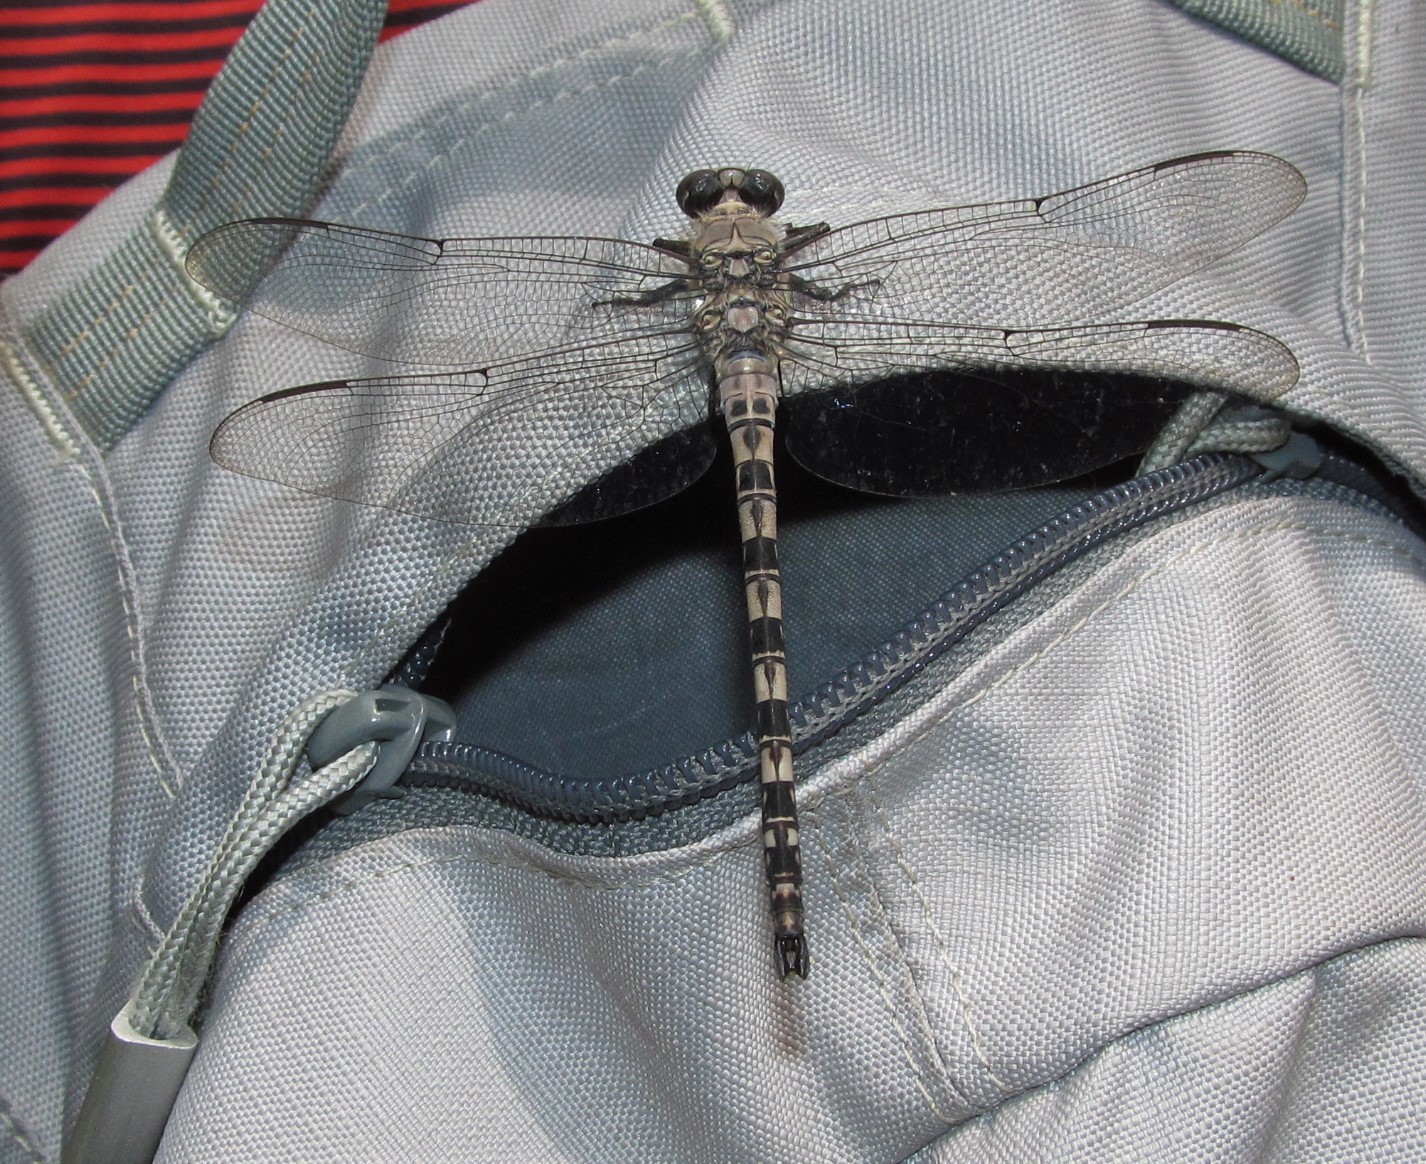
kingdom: Animalia
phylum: Arthropoda
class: Insecta
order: Odonata
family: Petaluridae
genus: Tachopteryx
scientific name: Tachopteryx thoreyi
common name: Gray petaltail
